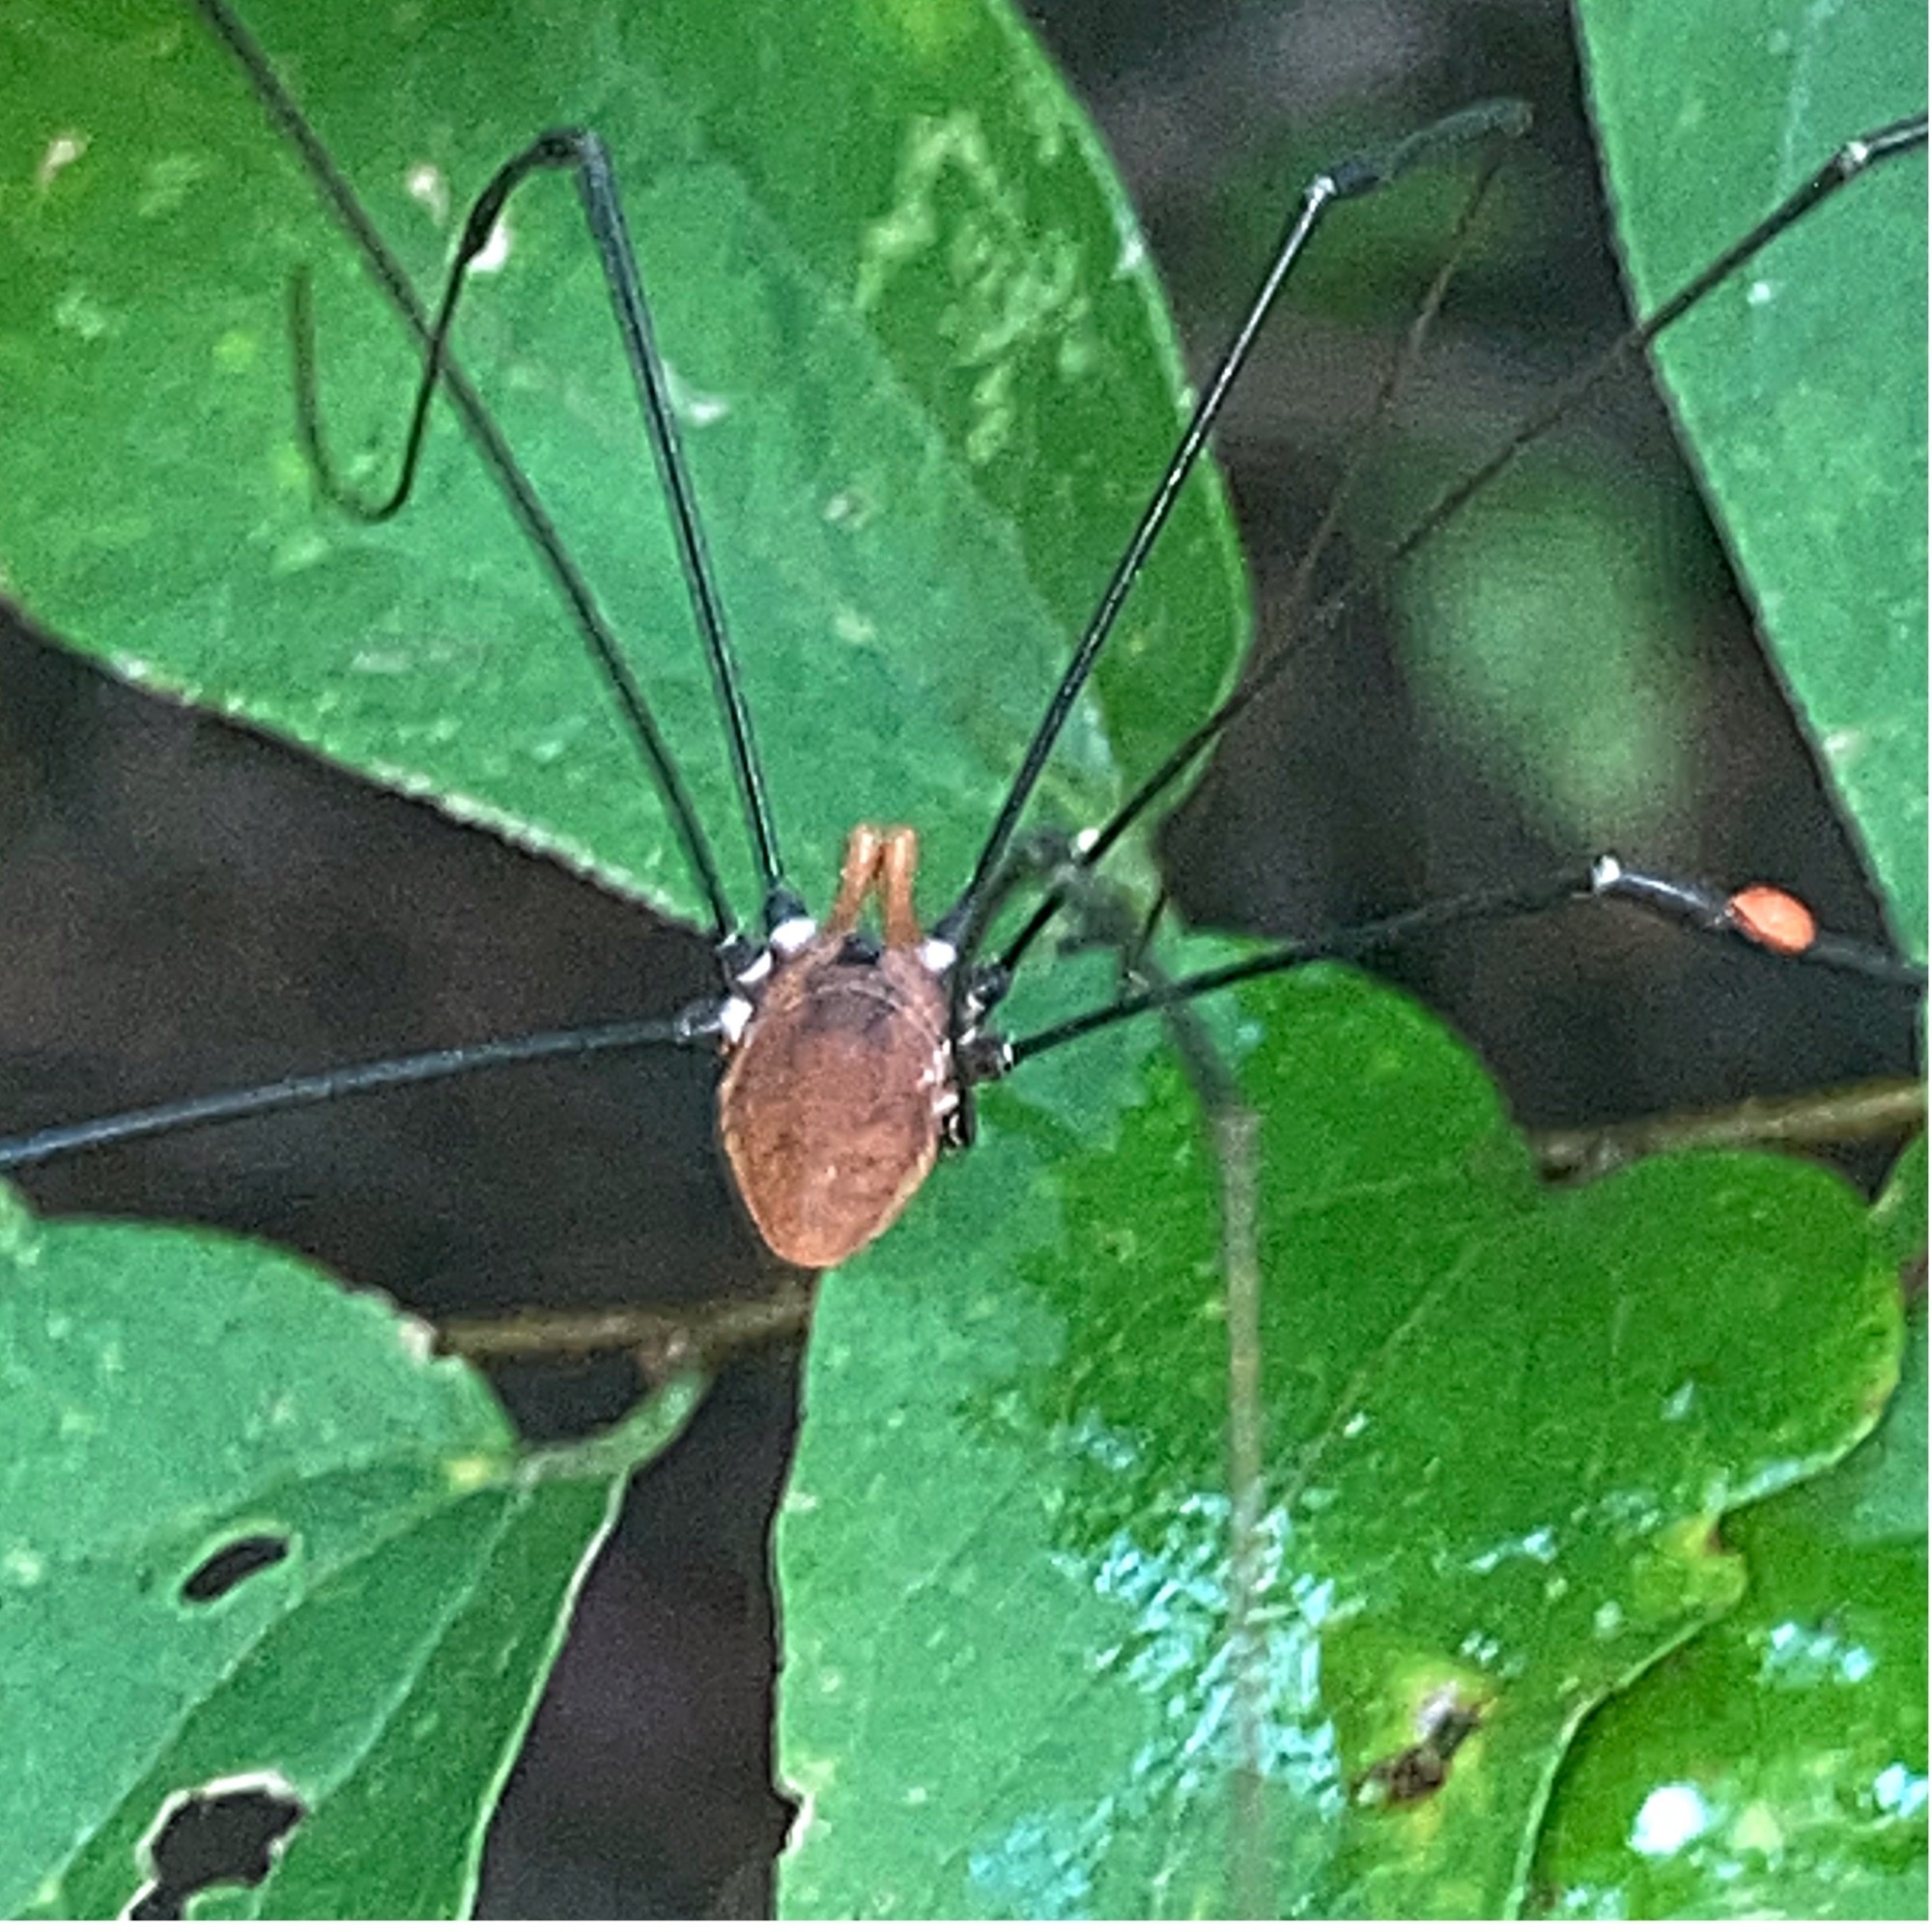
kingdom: Animalia
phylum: Arthropoda
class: Arachnida
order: Opiliones
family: Sclerosomatidae
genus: Leiobunum
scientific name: Leiobunum vittatum
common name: Eastern harvestman
